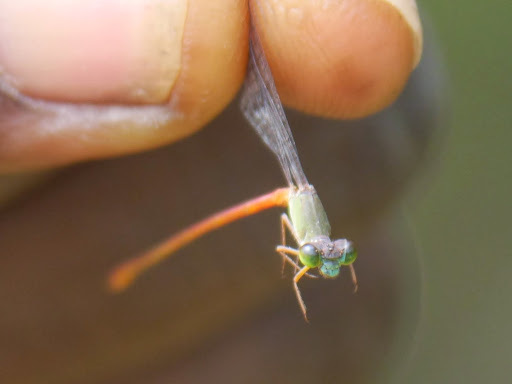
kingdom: Animalia
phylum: Arthropoda
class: Insecta
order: Odonata
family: Coenagrionidae
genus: Ceriagrion
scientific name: Ceriagrion corallinum
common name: Green-fronted waxtail
